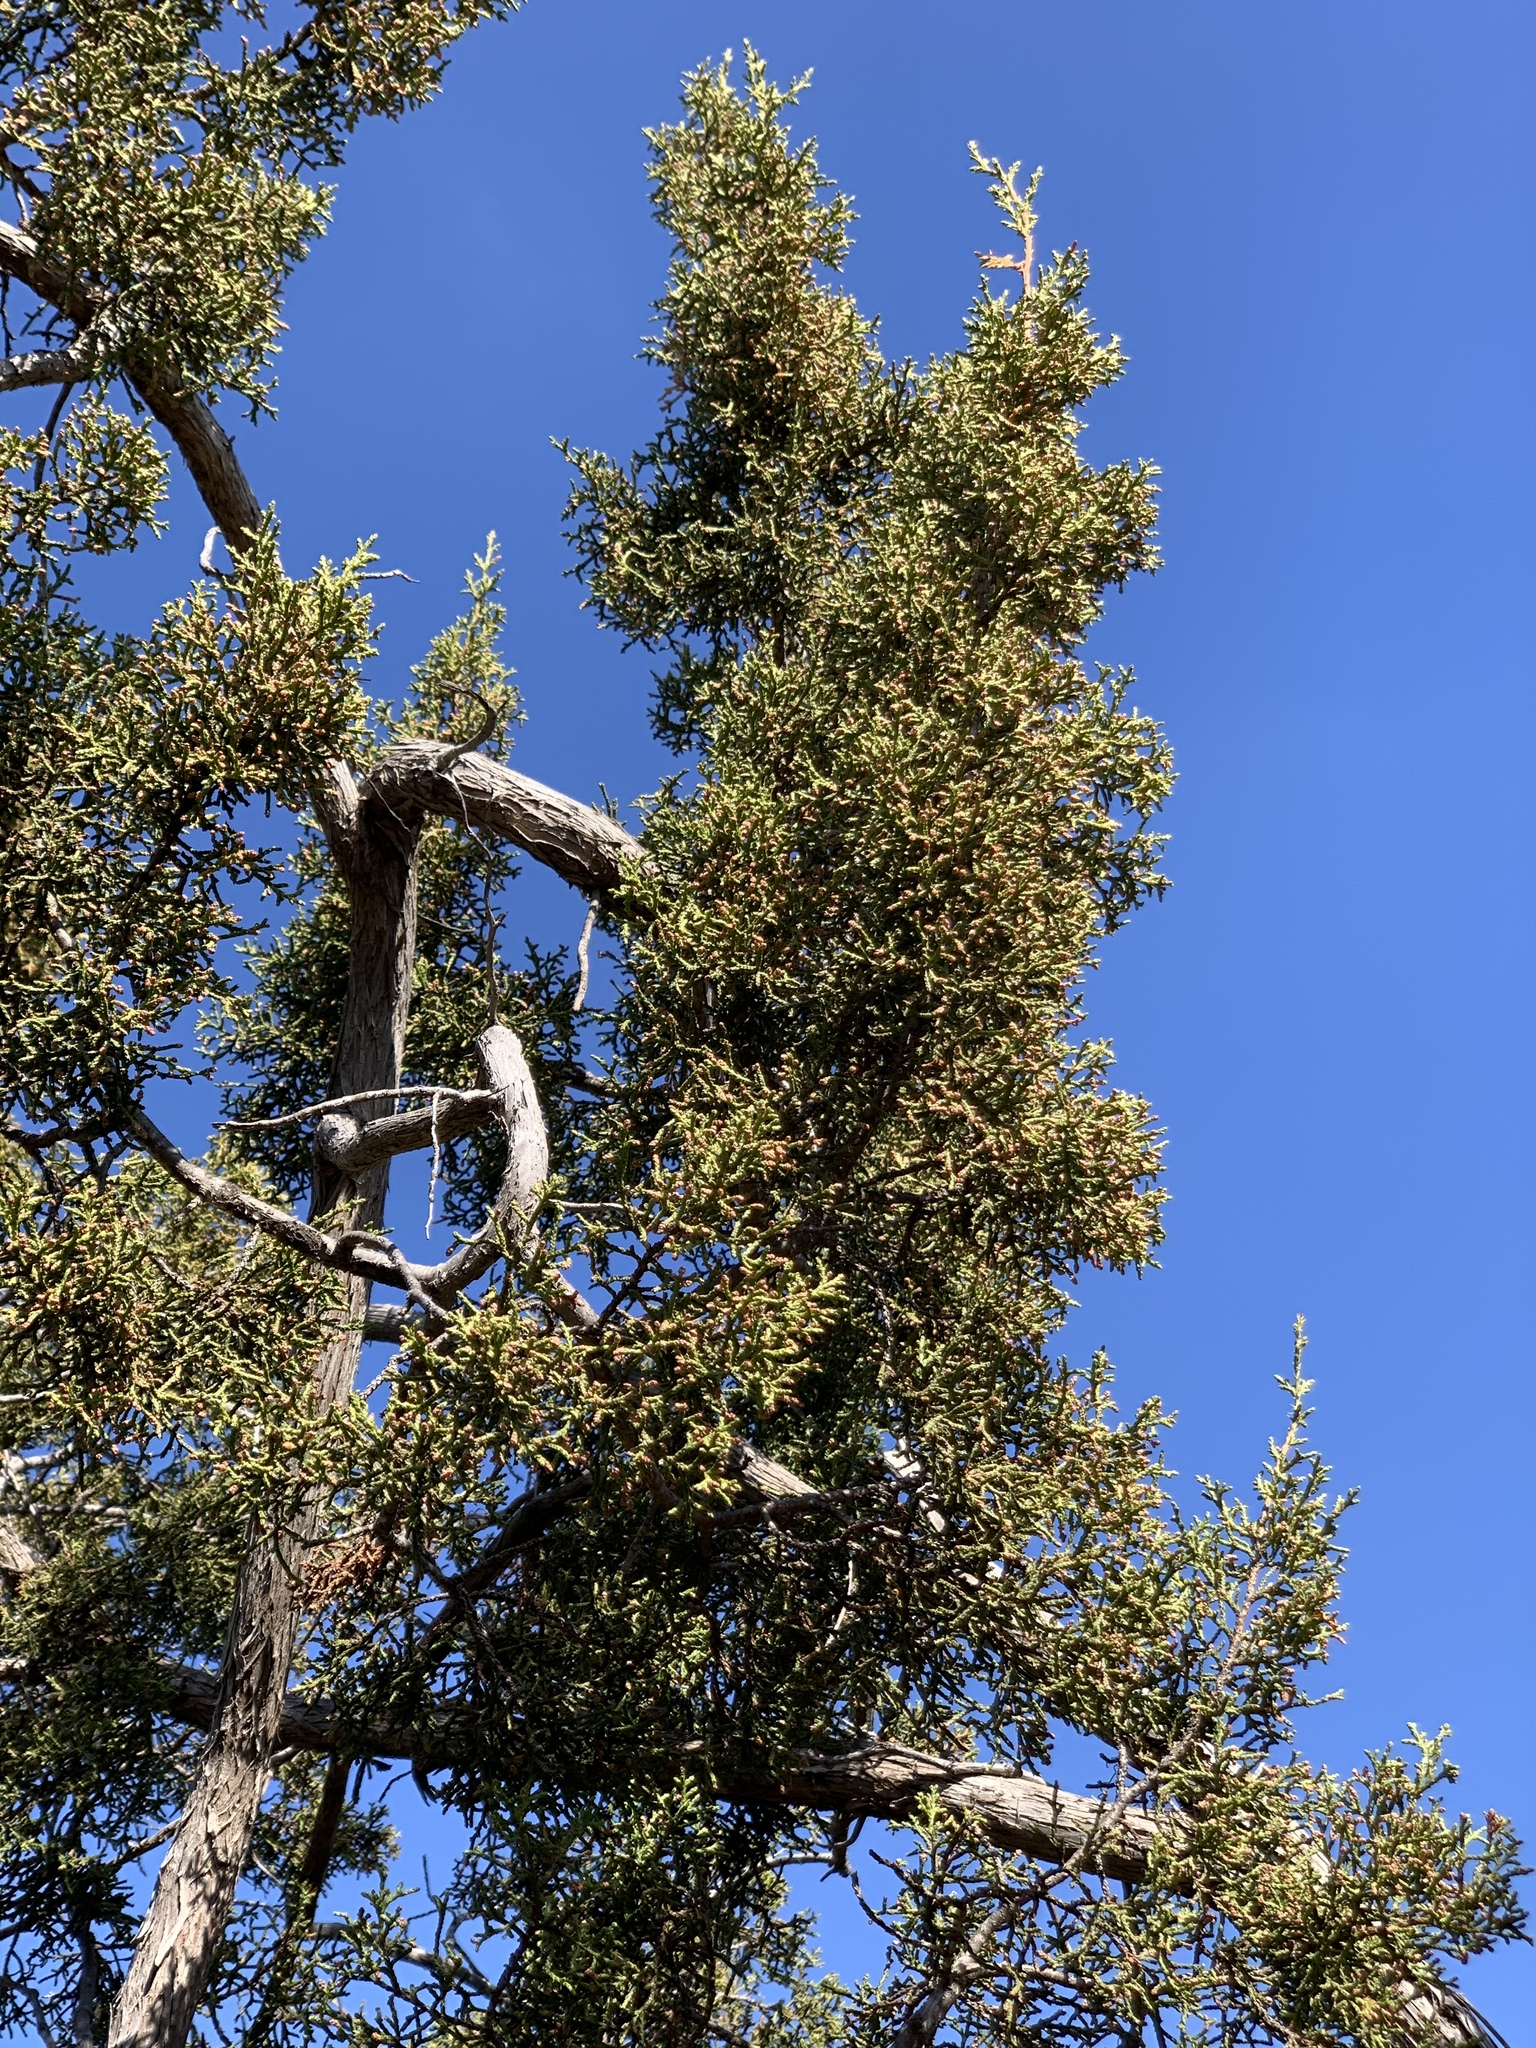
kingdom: Plantae
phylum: Tracheophyta
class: Pinopsida
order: Pinales
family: Cupressaceae
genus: Juniperus
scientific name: Juniperus pinchotii
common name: Pinchot juniper
